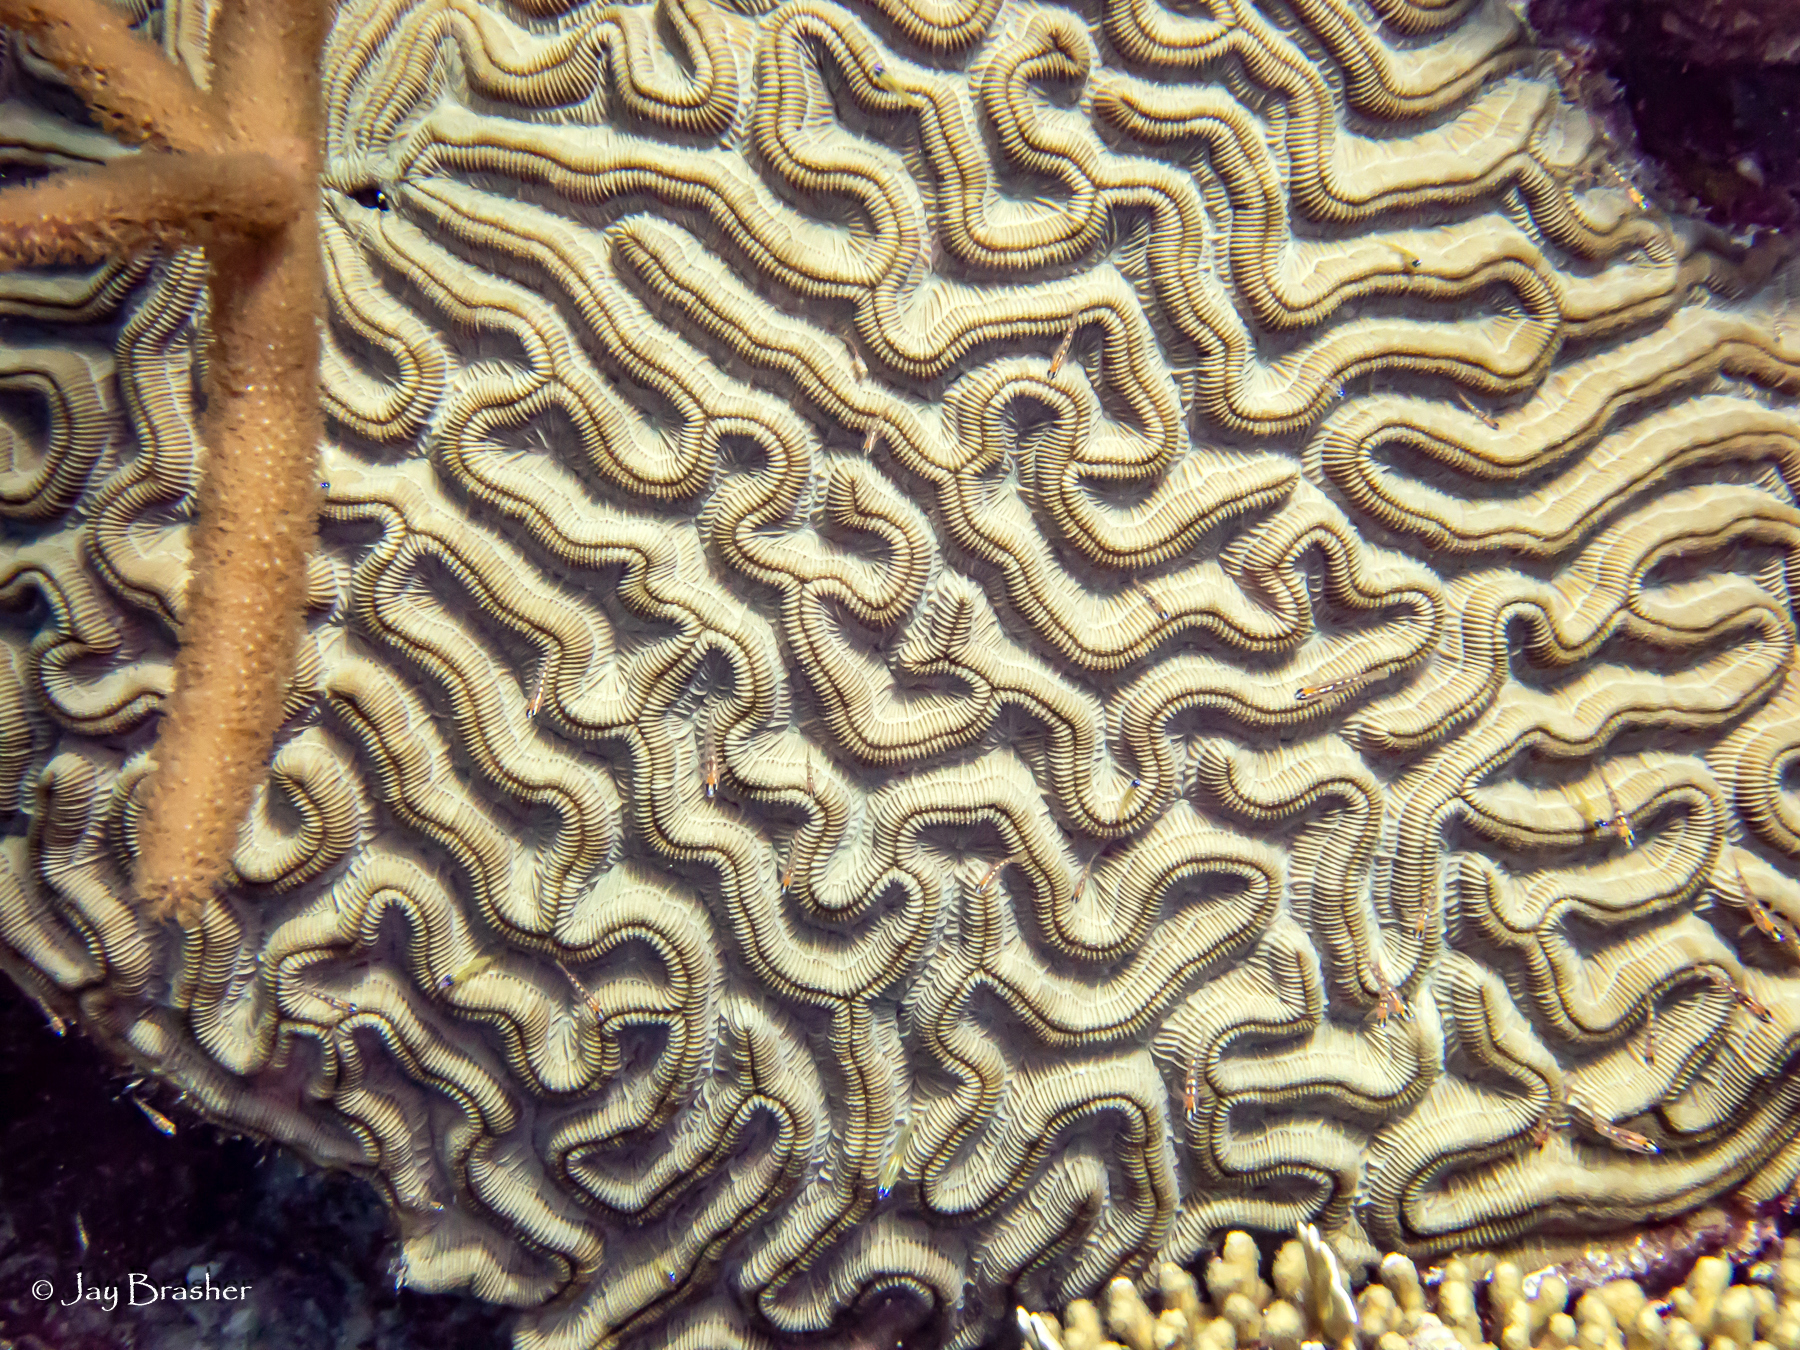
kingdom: Animalia
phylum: Cnidaria
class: Anthozoa
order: Scleractinia
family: Faviidae
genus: Colpophyllia
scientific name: Colpophyllia natans
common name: Boulder brain coral
